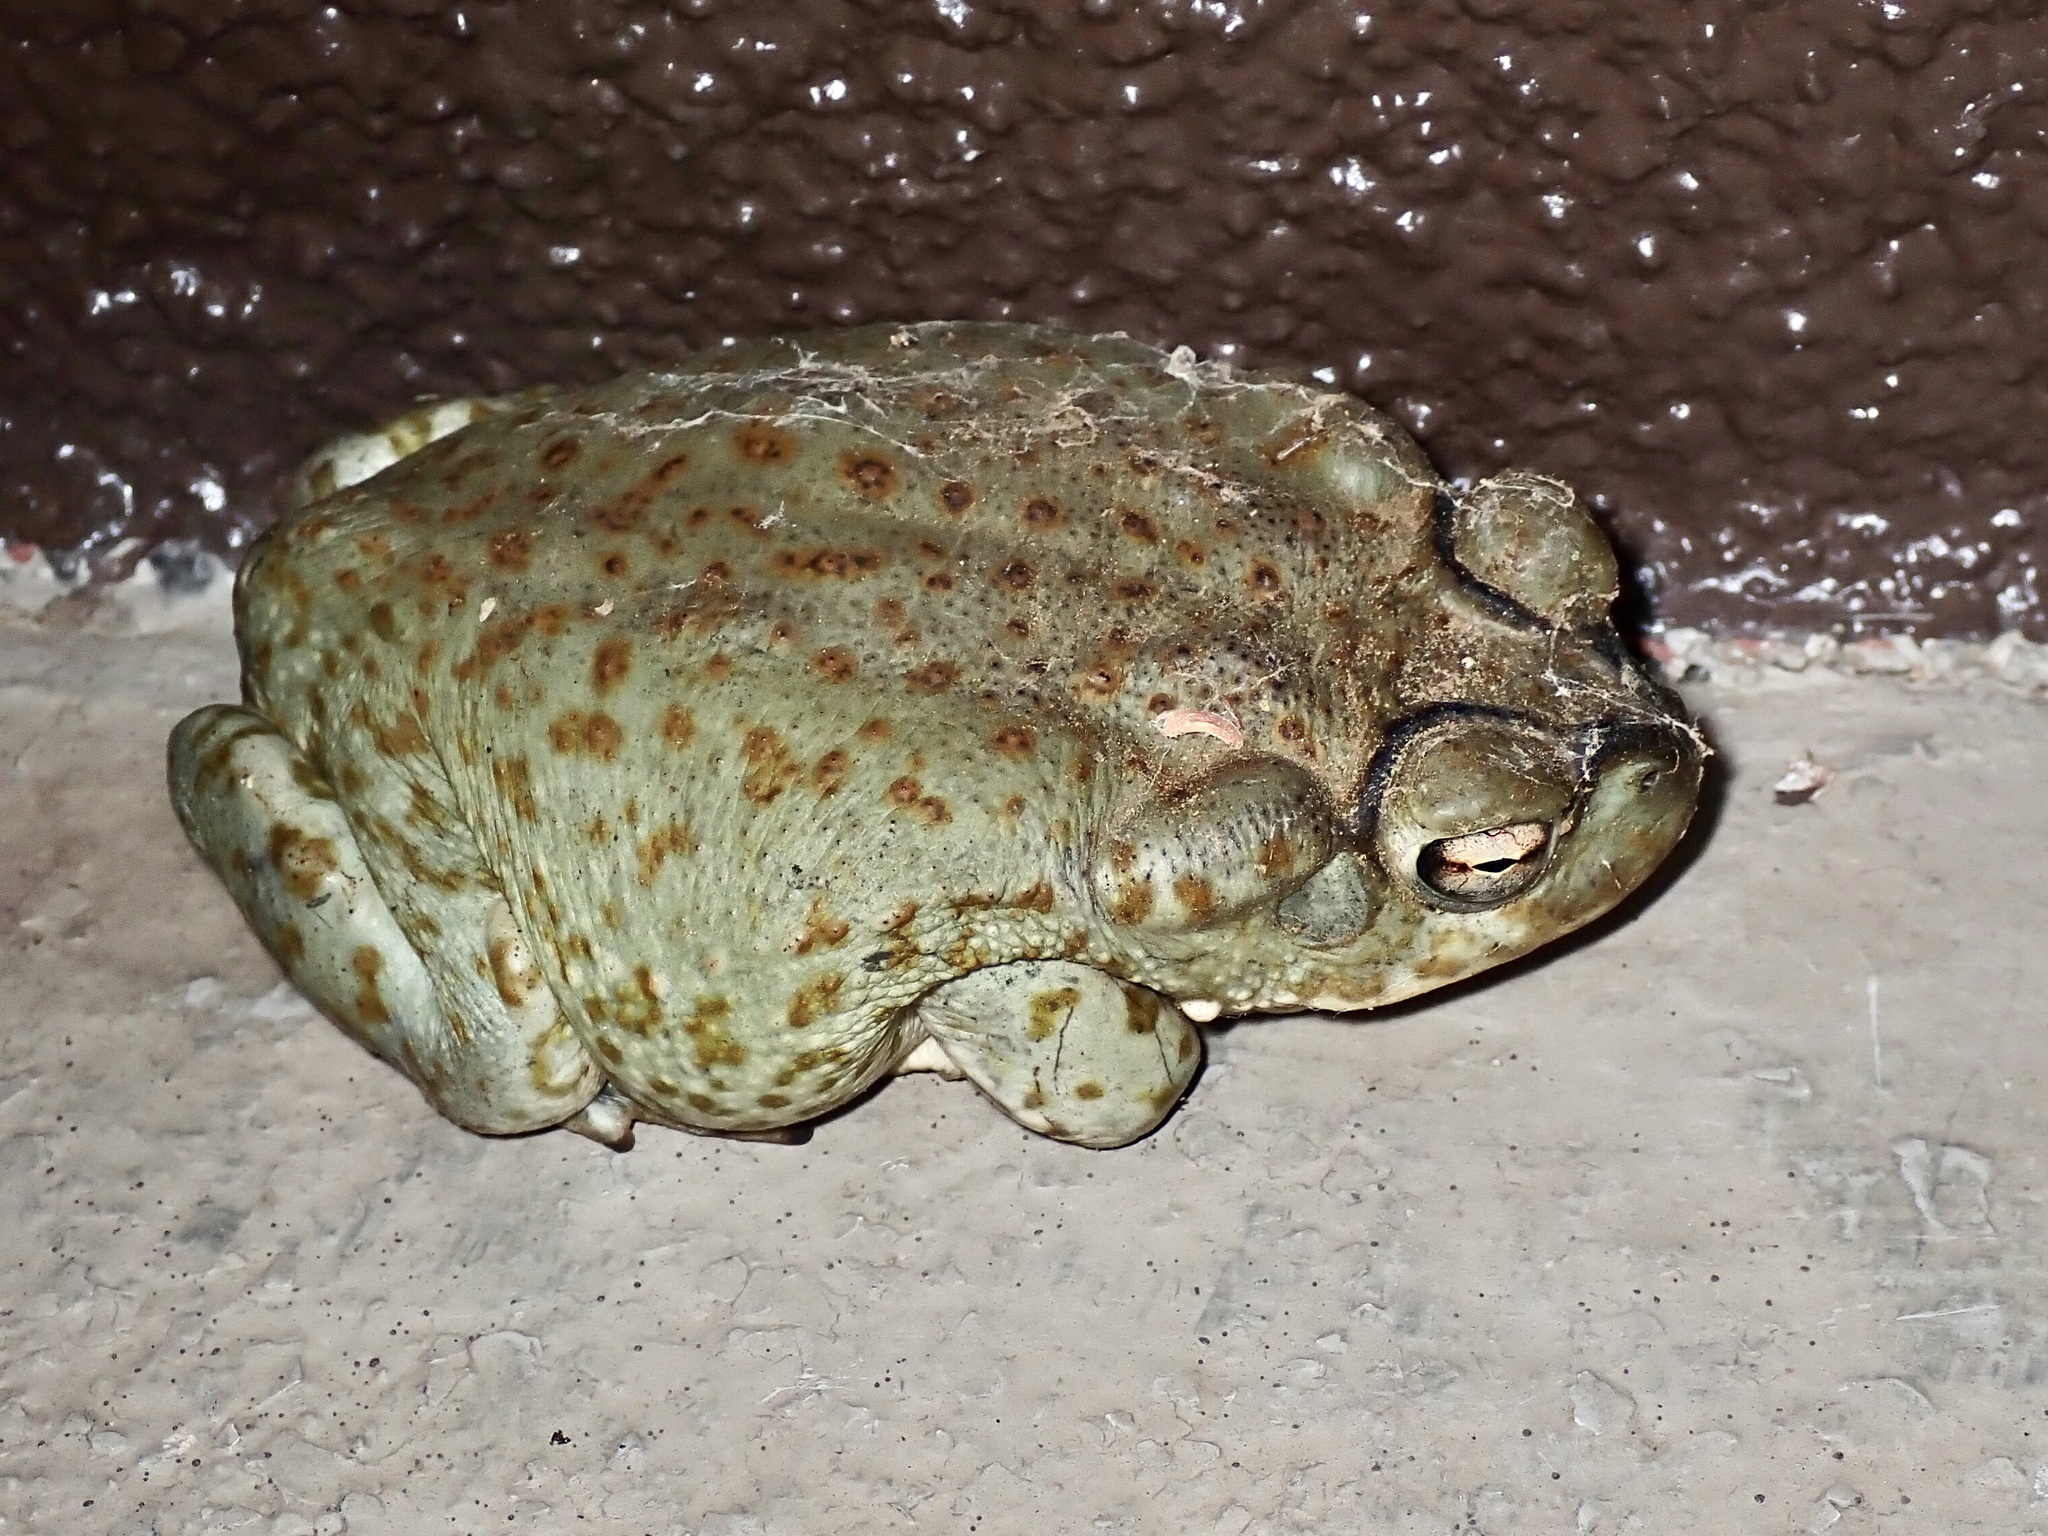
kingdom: Animalia
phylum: Chordata
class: Amphibia
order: Anura
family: Bufonidae
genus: Incilius
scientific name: Incilius alvarius
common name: Sonoran desert toad
